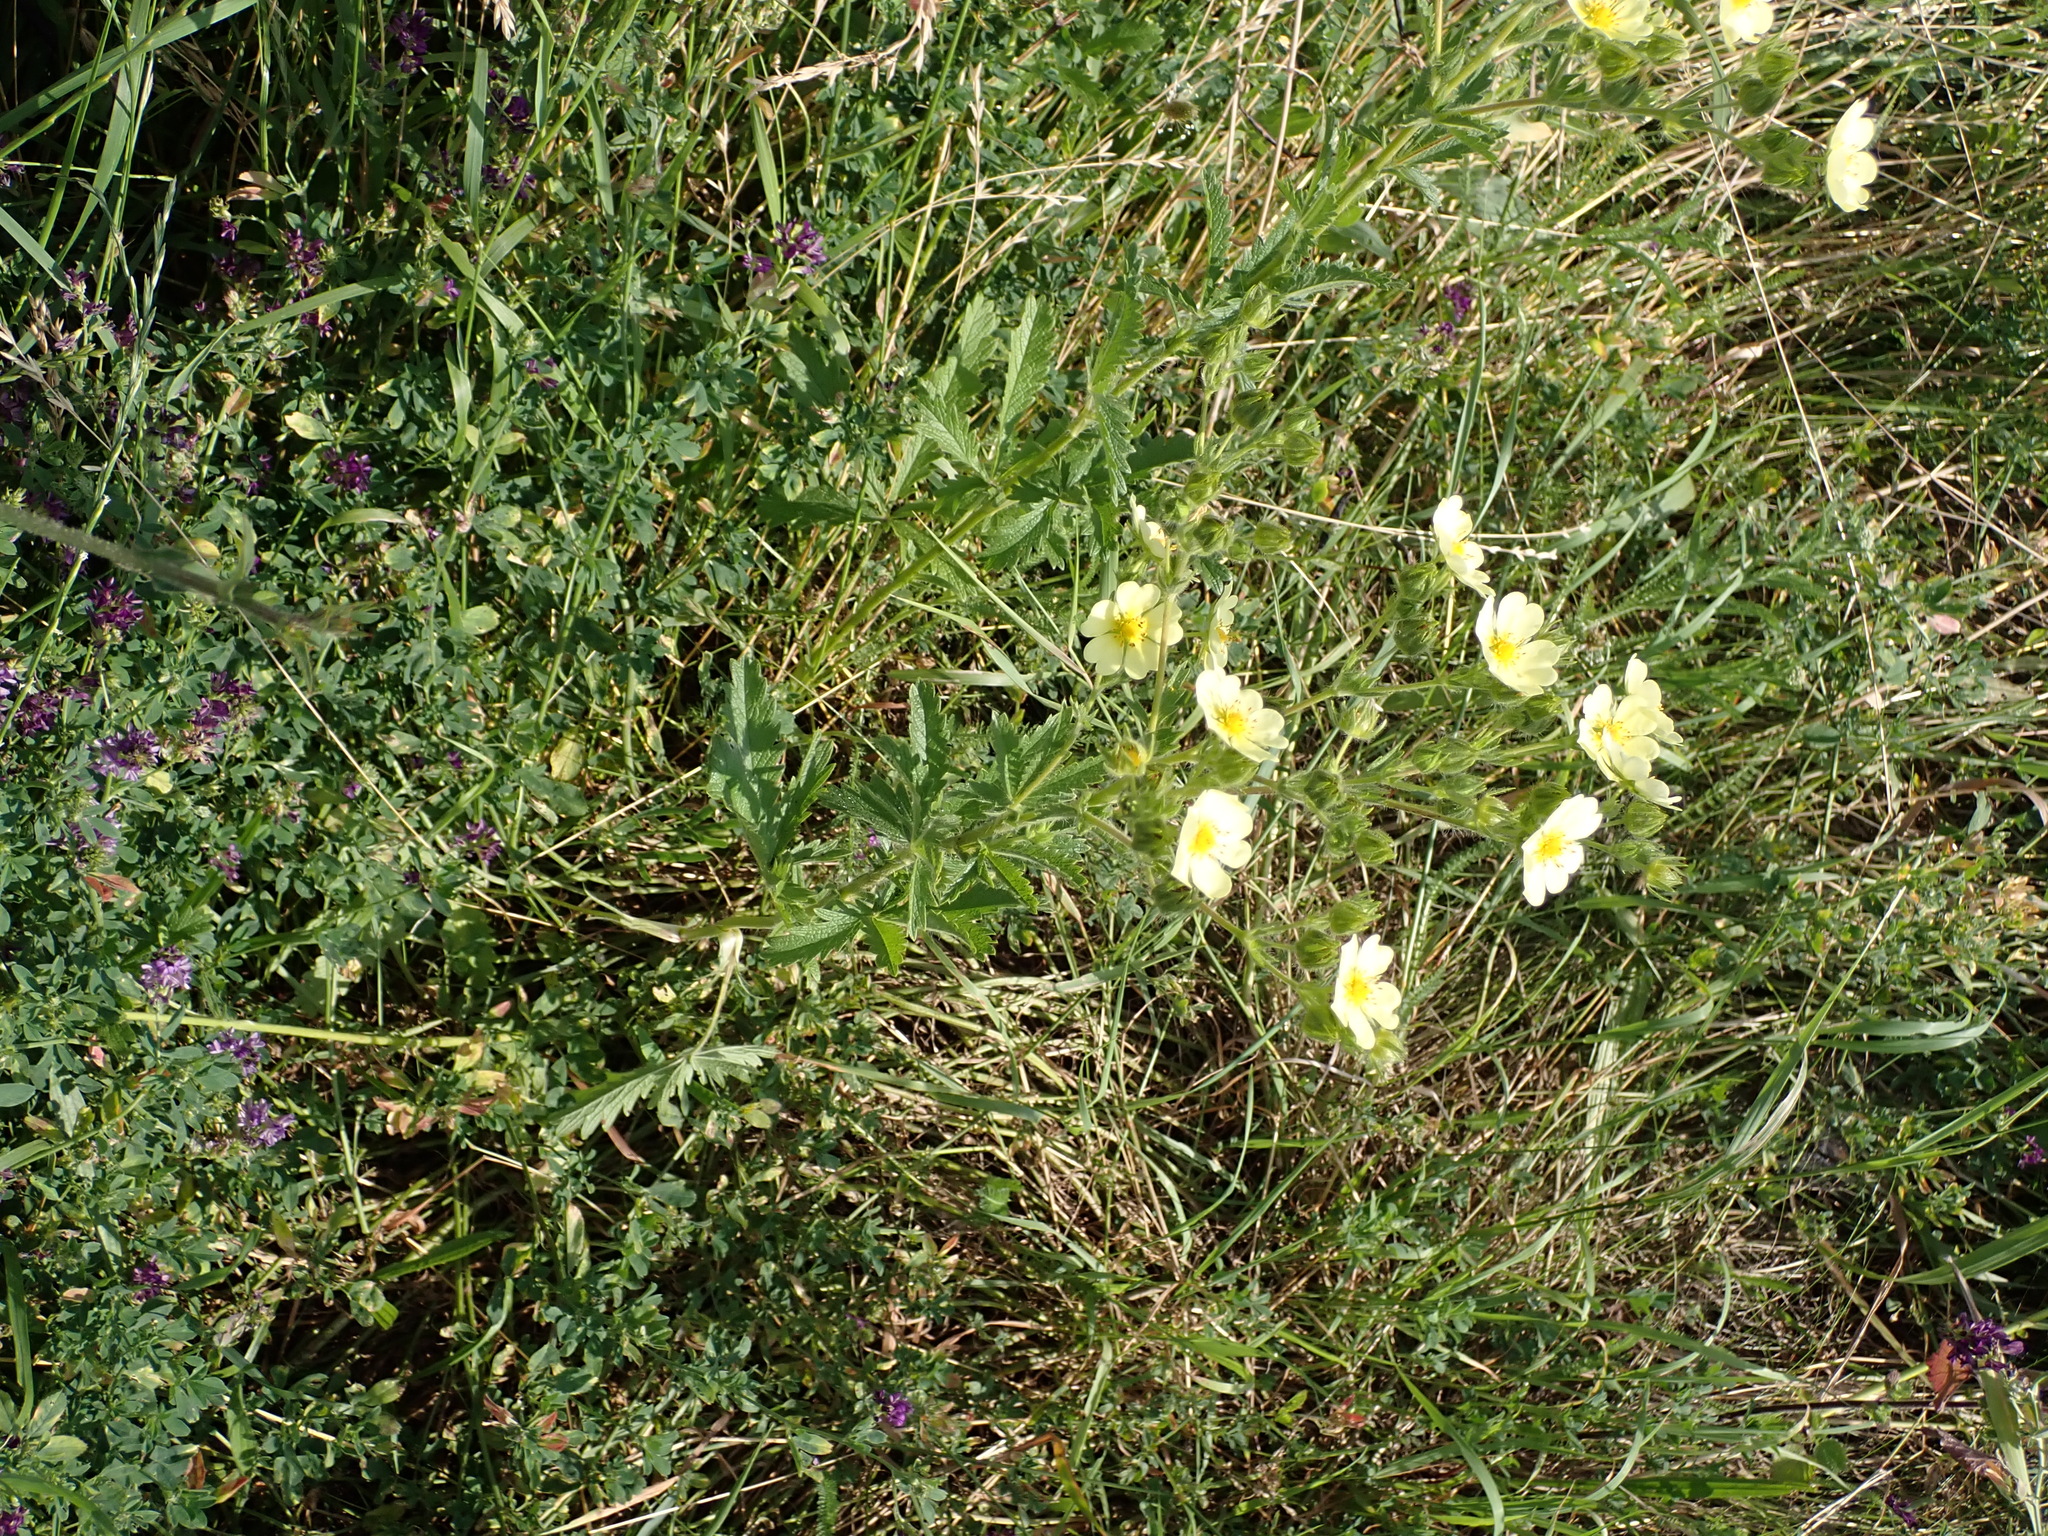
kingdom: Plantae
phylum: Tracheophyta
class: Magnoliopsida
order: Rosales
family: Rosaceae
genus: Potentilla
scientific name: Potentilla recta
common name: Sulphur cinquefoil
